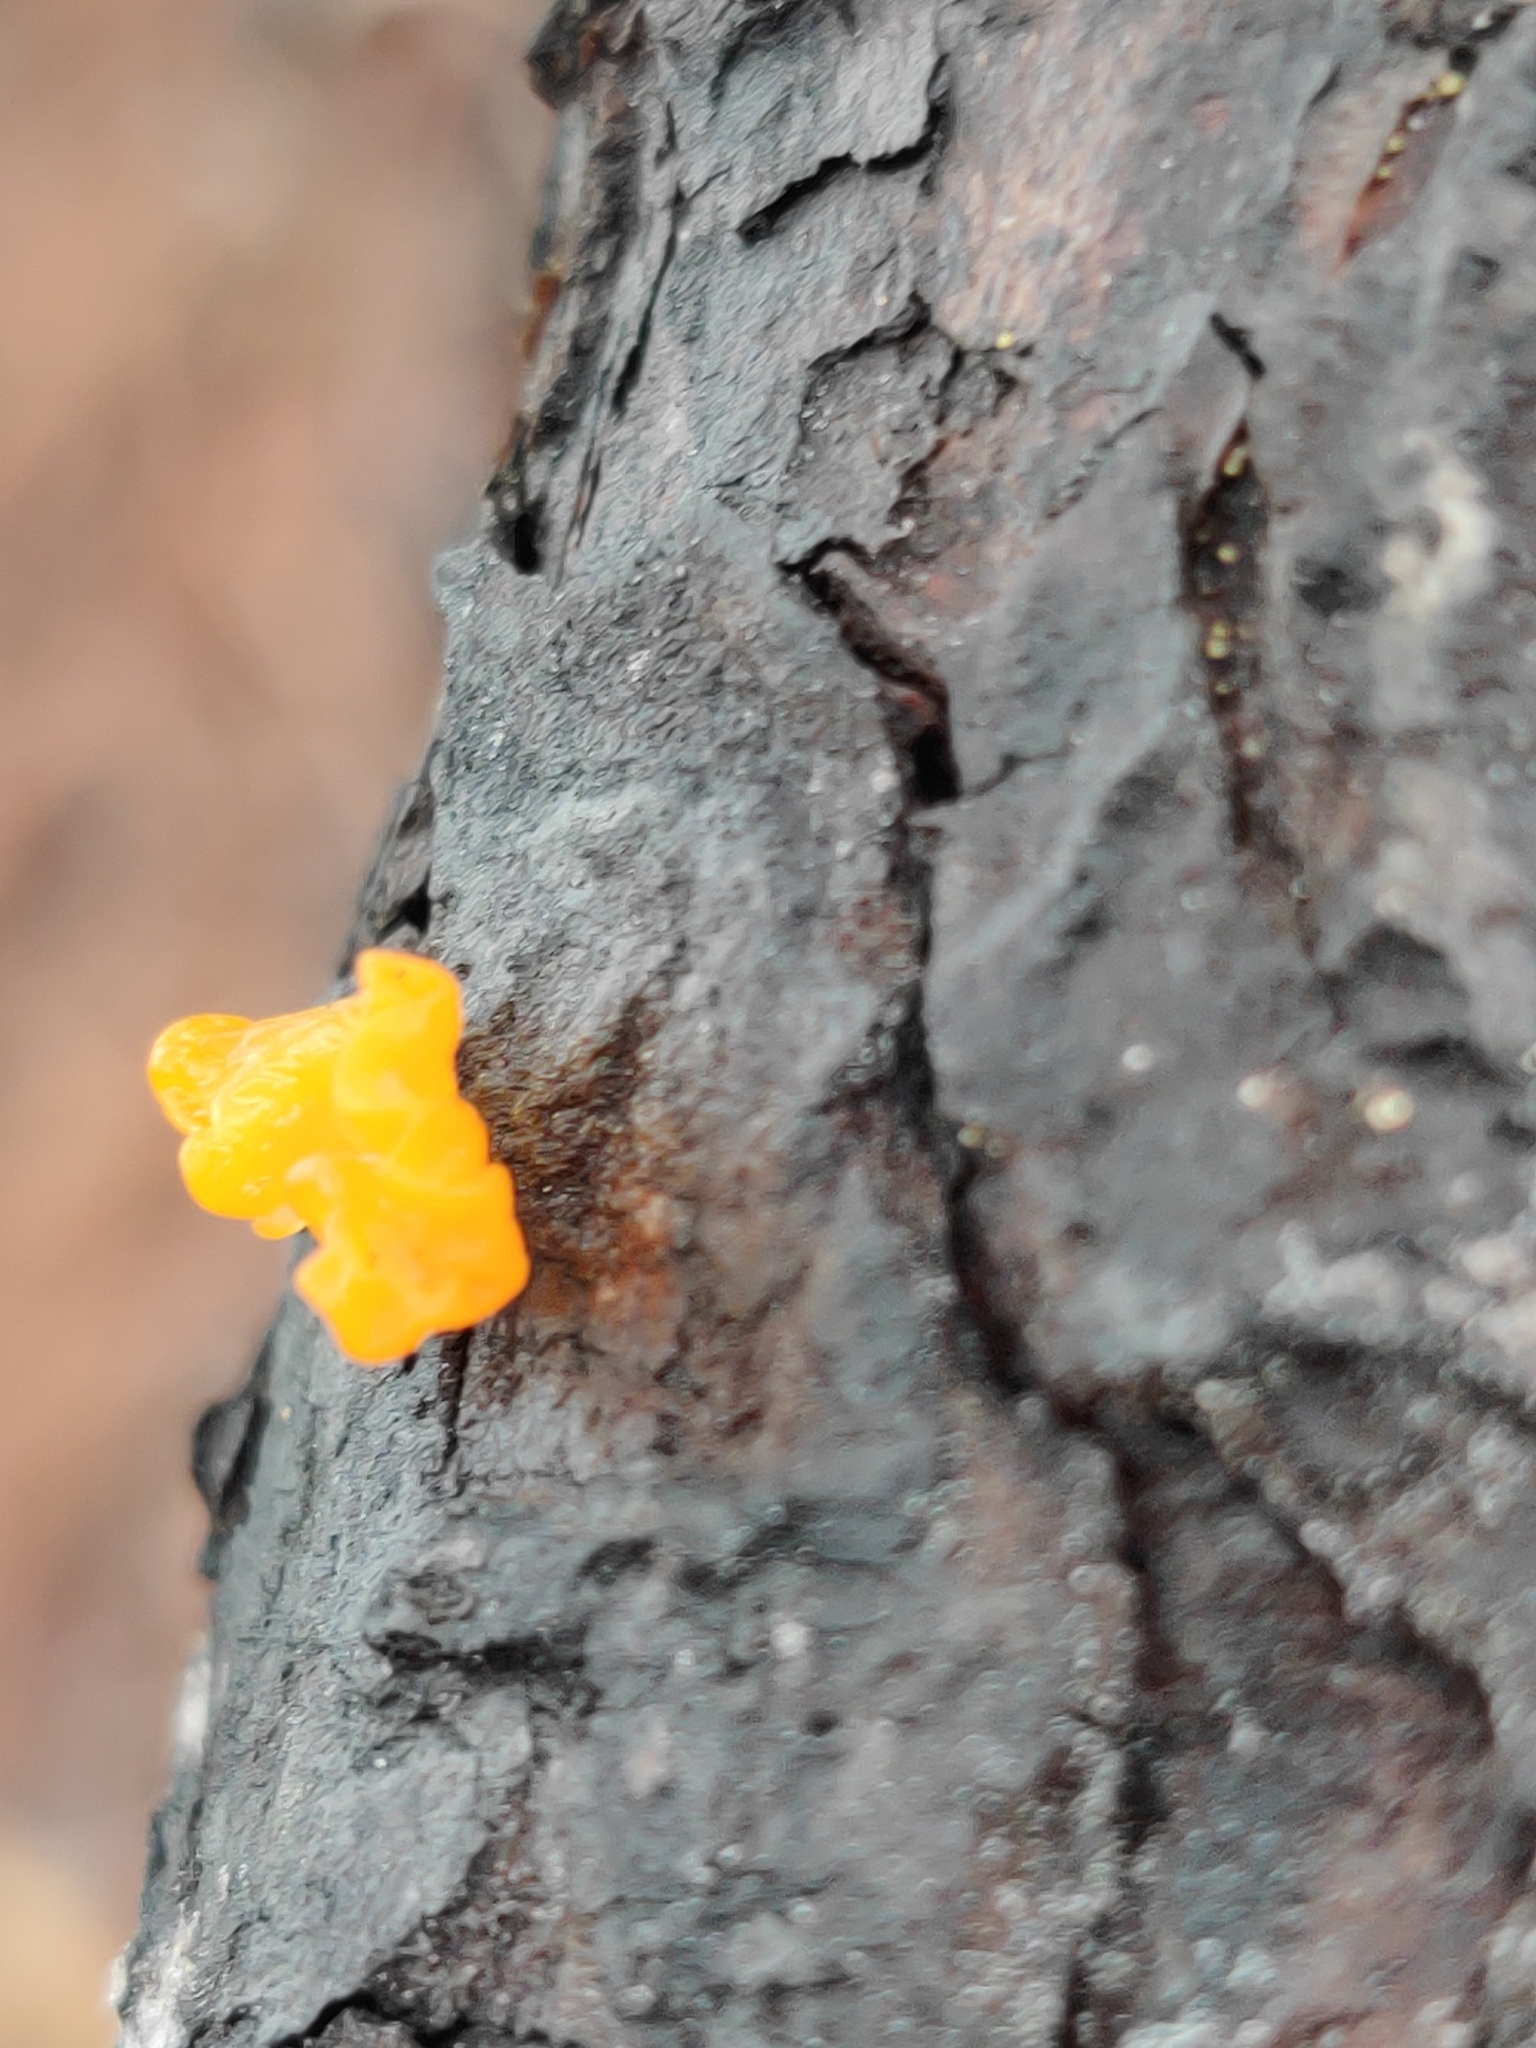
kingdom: Fungi
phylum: Basidiomycota
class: Dacrymycetes
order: Dacrymycetales
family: Dacrymycetaceae
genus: Dacrymyces
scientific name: Dacrymyces chrysospermus
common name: Orange jelly spot
